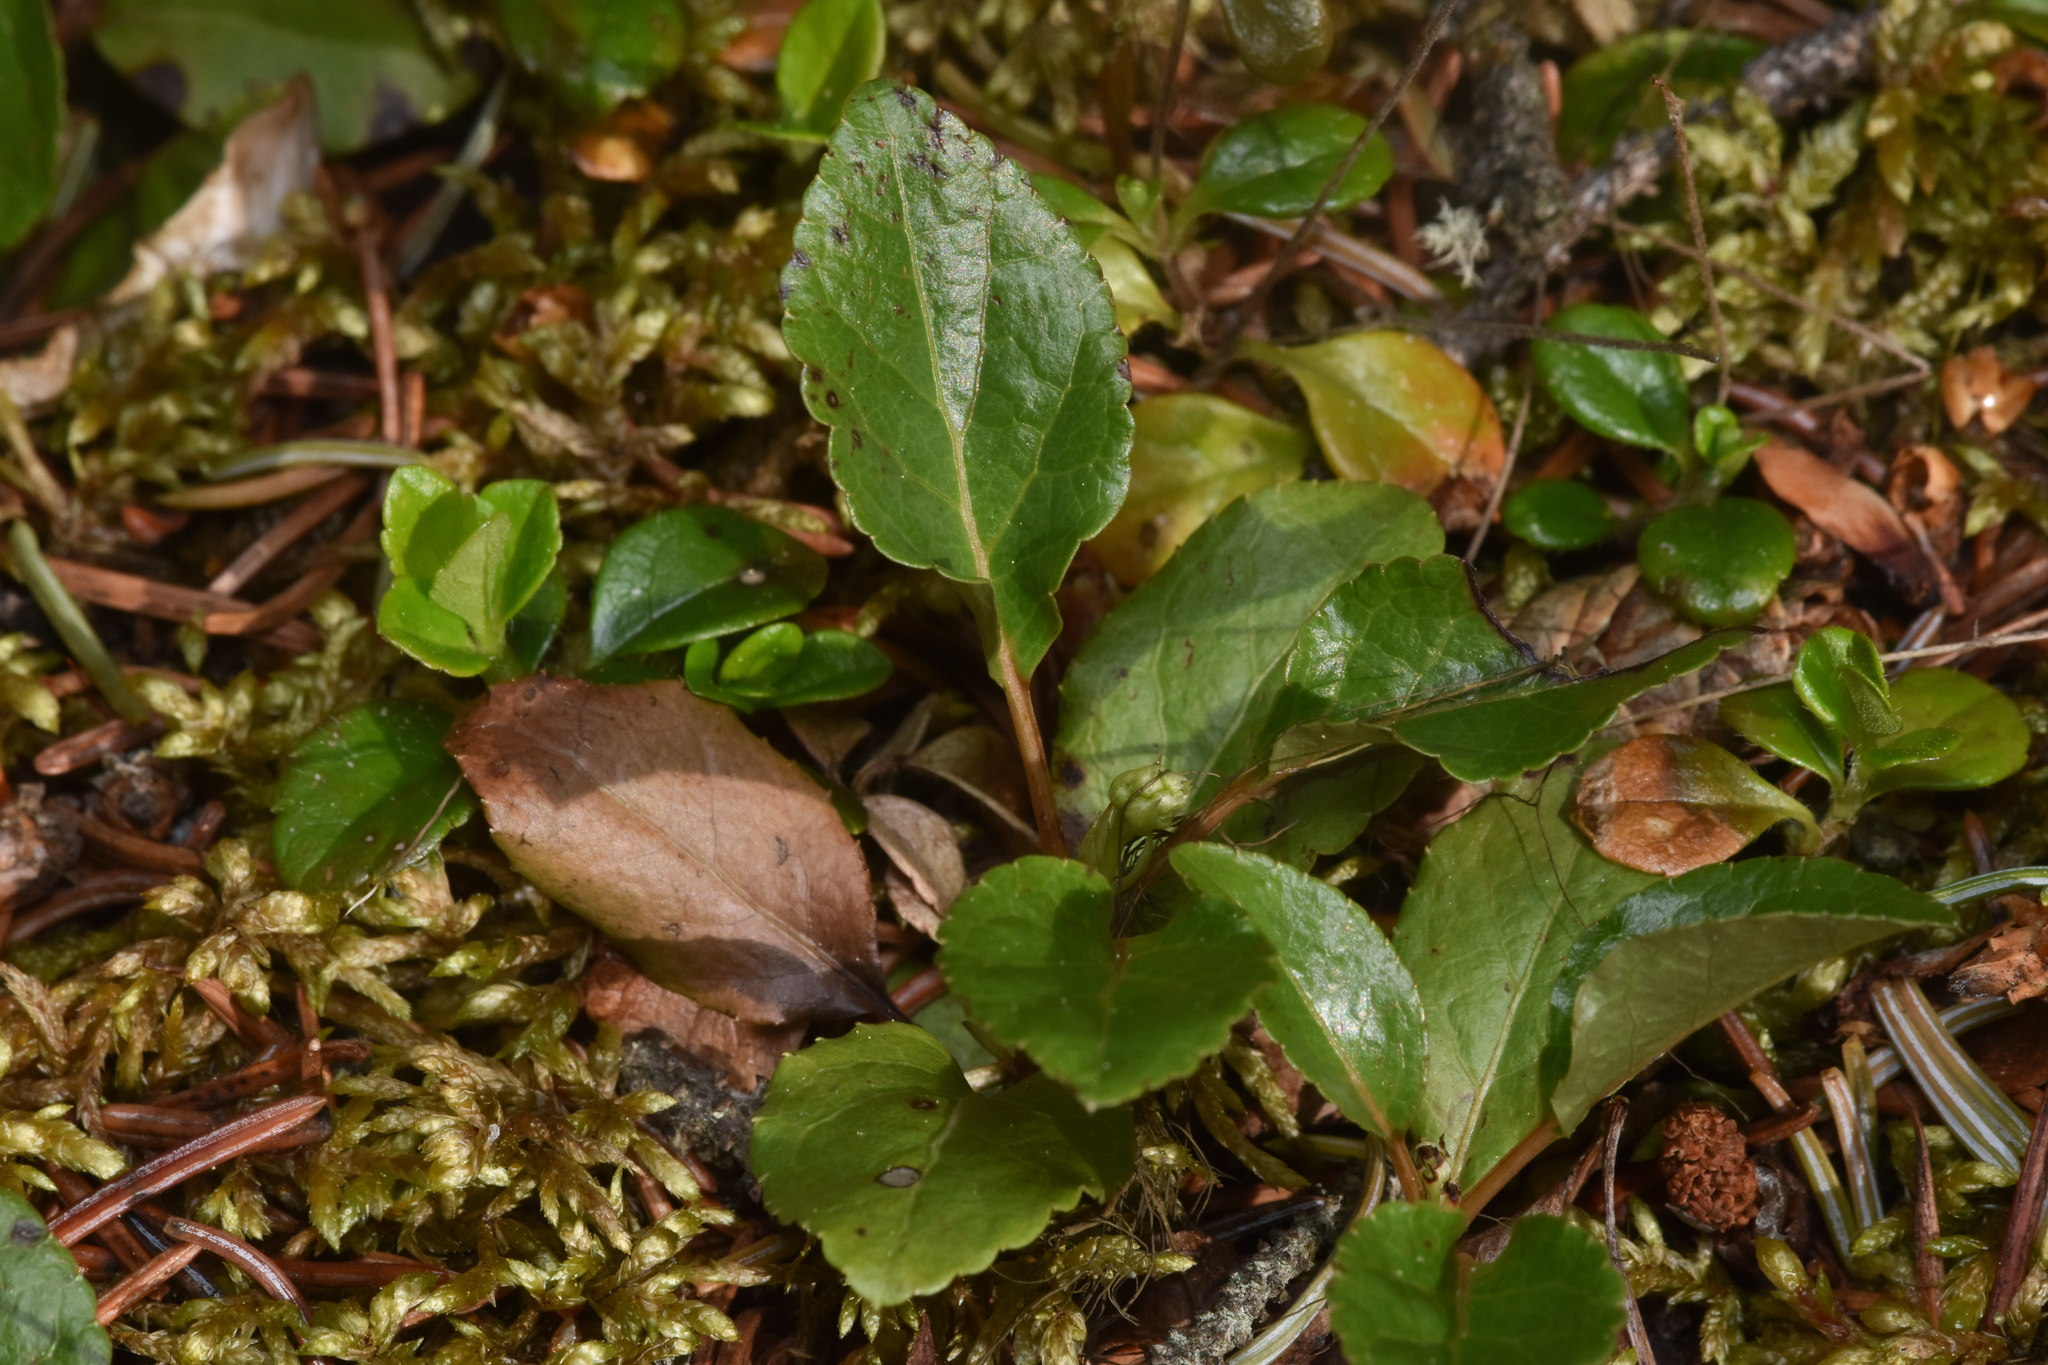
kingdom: Plantae
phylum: Tracheophyta
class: Magnoliopsida
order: Ericales
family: Ericaceae
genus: Orthilia
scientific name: Orthilia secunda
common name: One-sided orthilia
